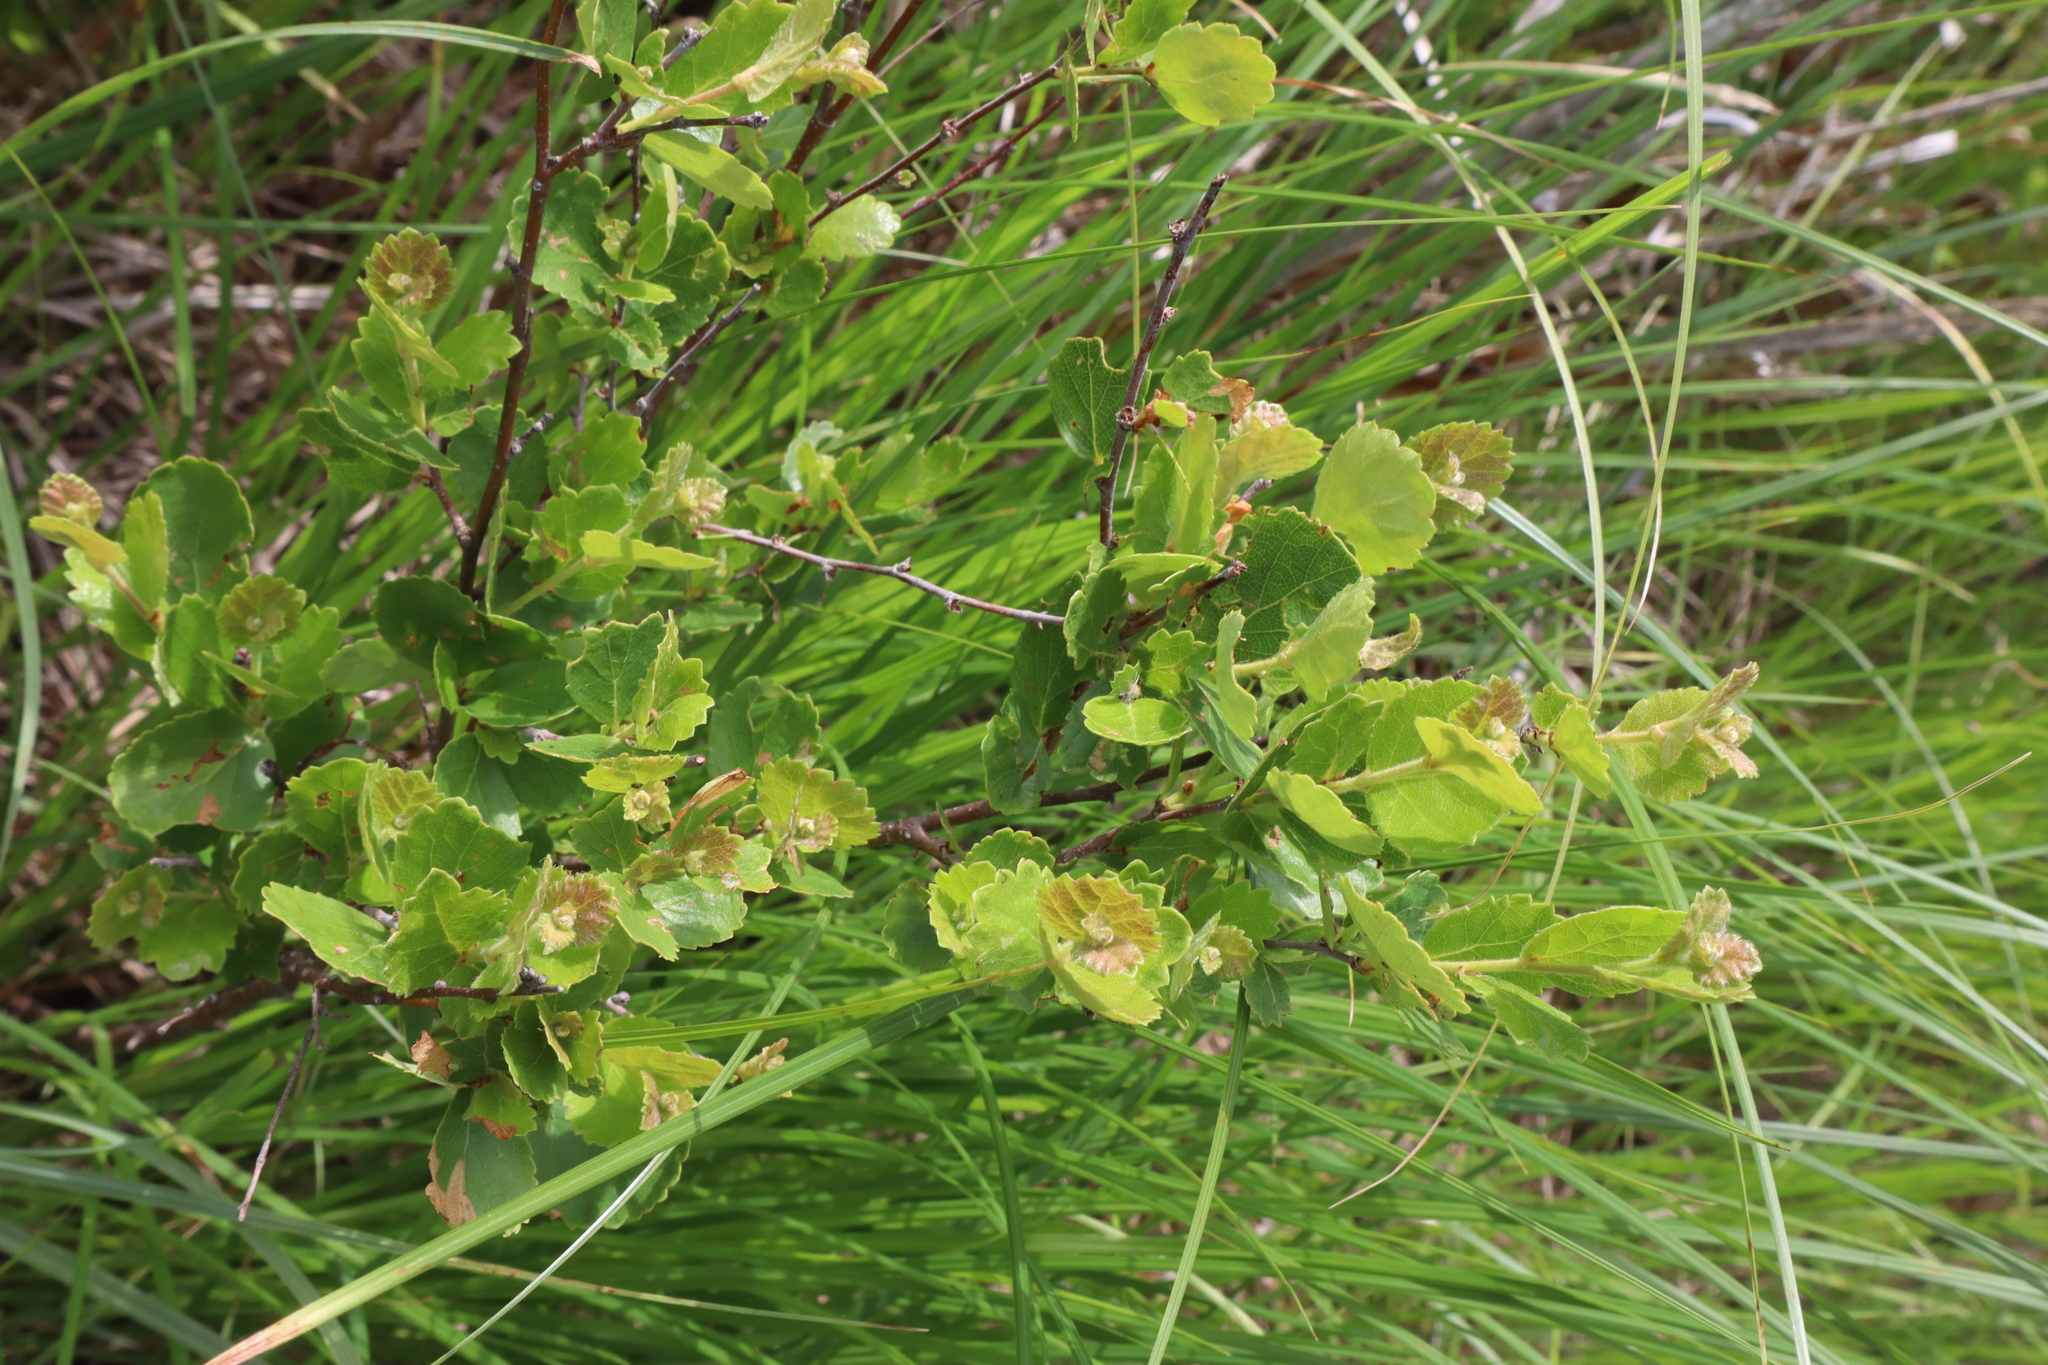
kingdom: Plantae
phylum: Tracheophyta
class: Magnoliopsida
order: Fagales
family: Betulaceae
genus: Betula
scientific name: Betula pumila
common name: Bog birch
